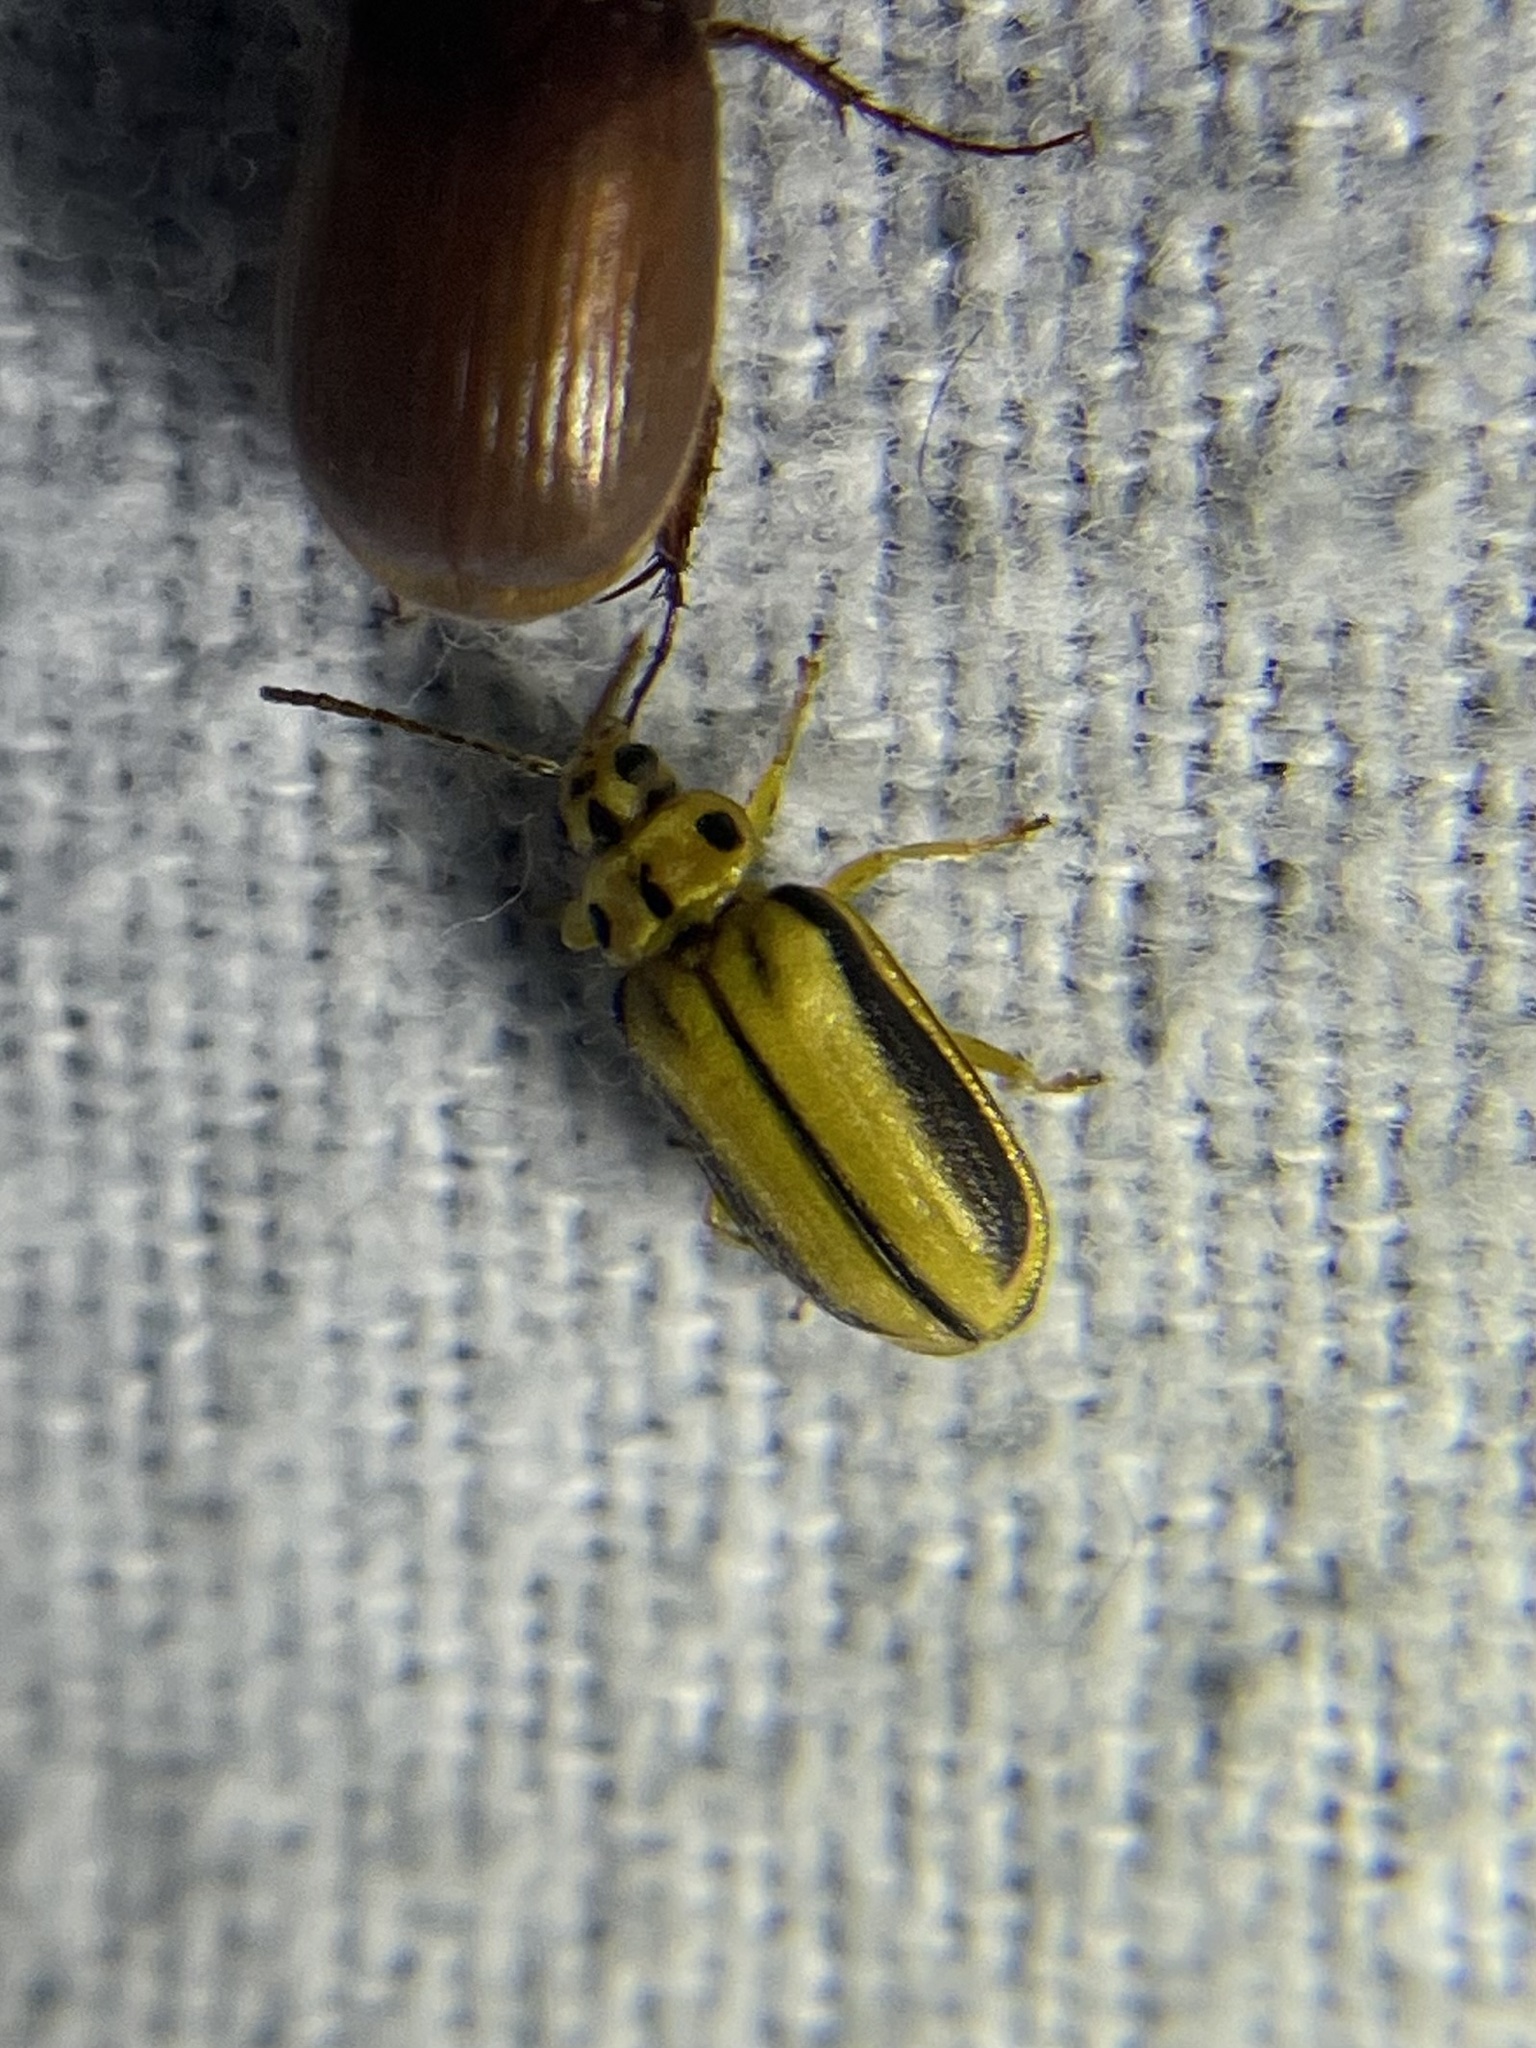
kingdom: Animalia
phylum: Arthropoda
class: Insecta
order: Coleoptera
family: Chrysomelidae
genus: Xanthogaleruca
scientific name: Xanthogaleruca luteola
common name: Elm leaf beetle
